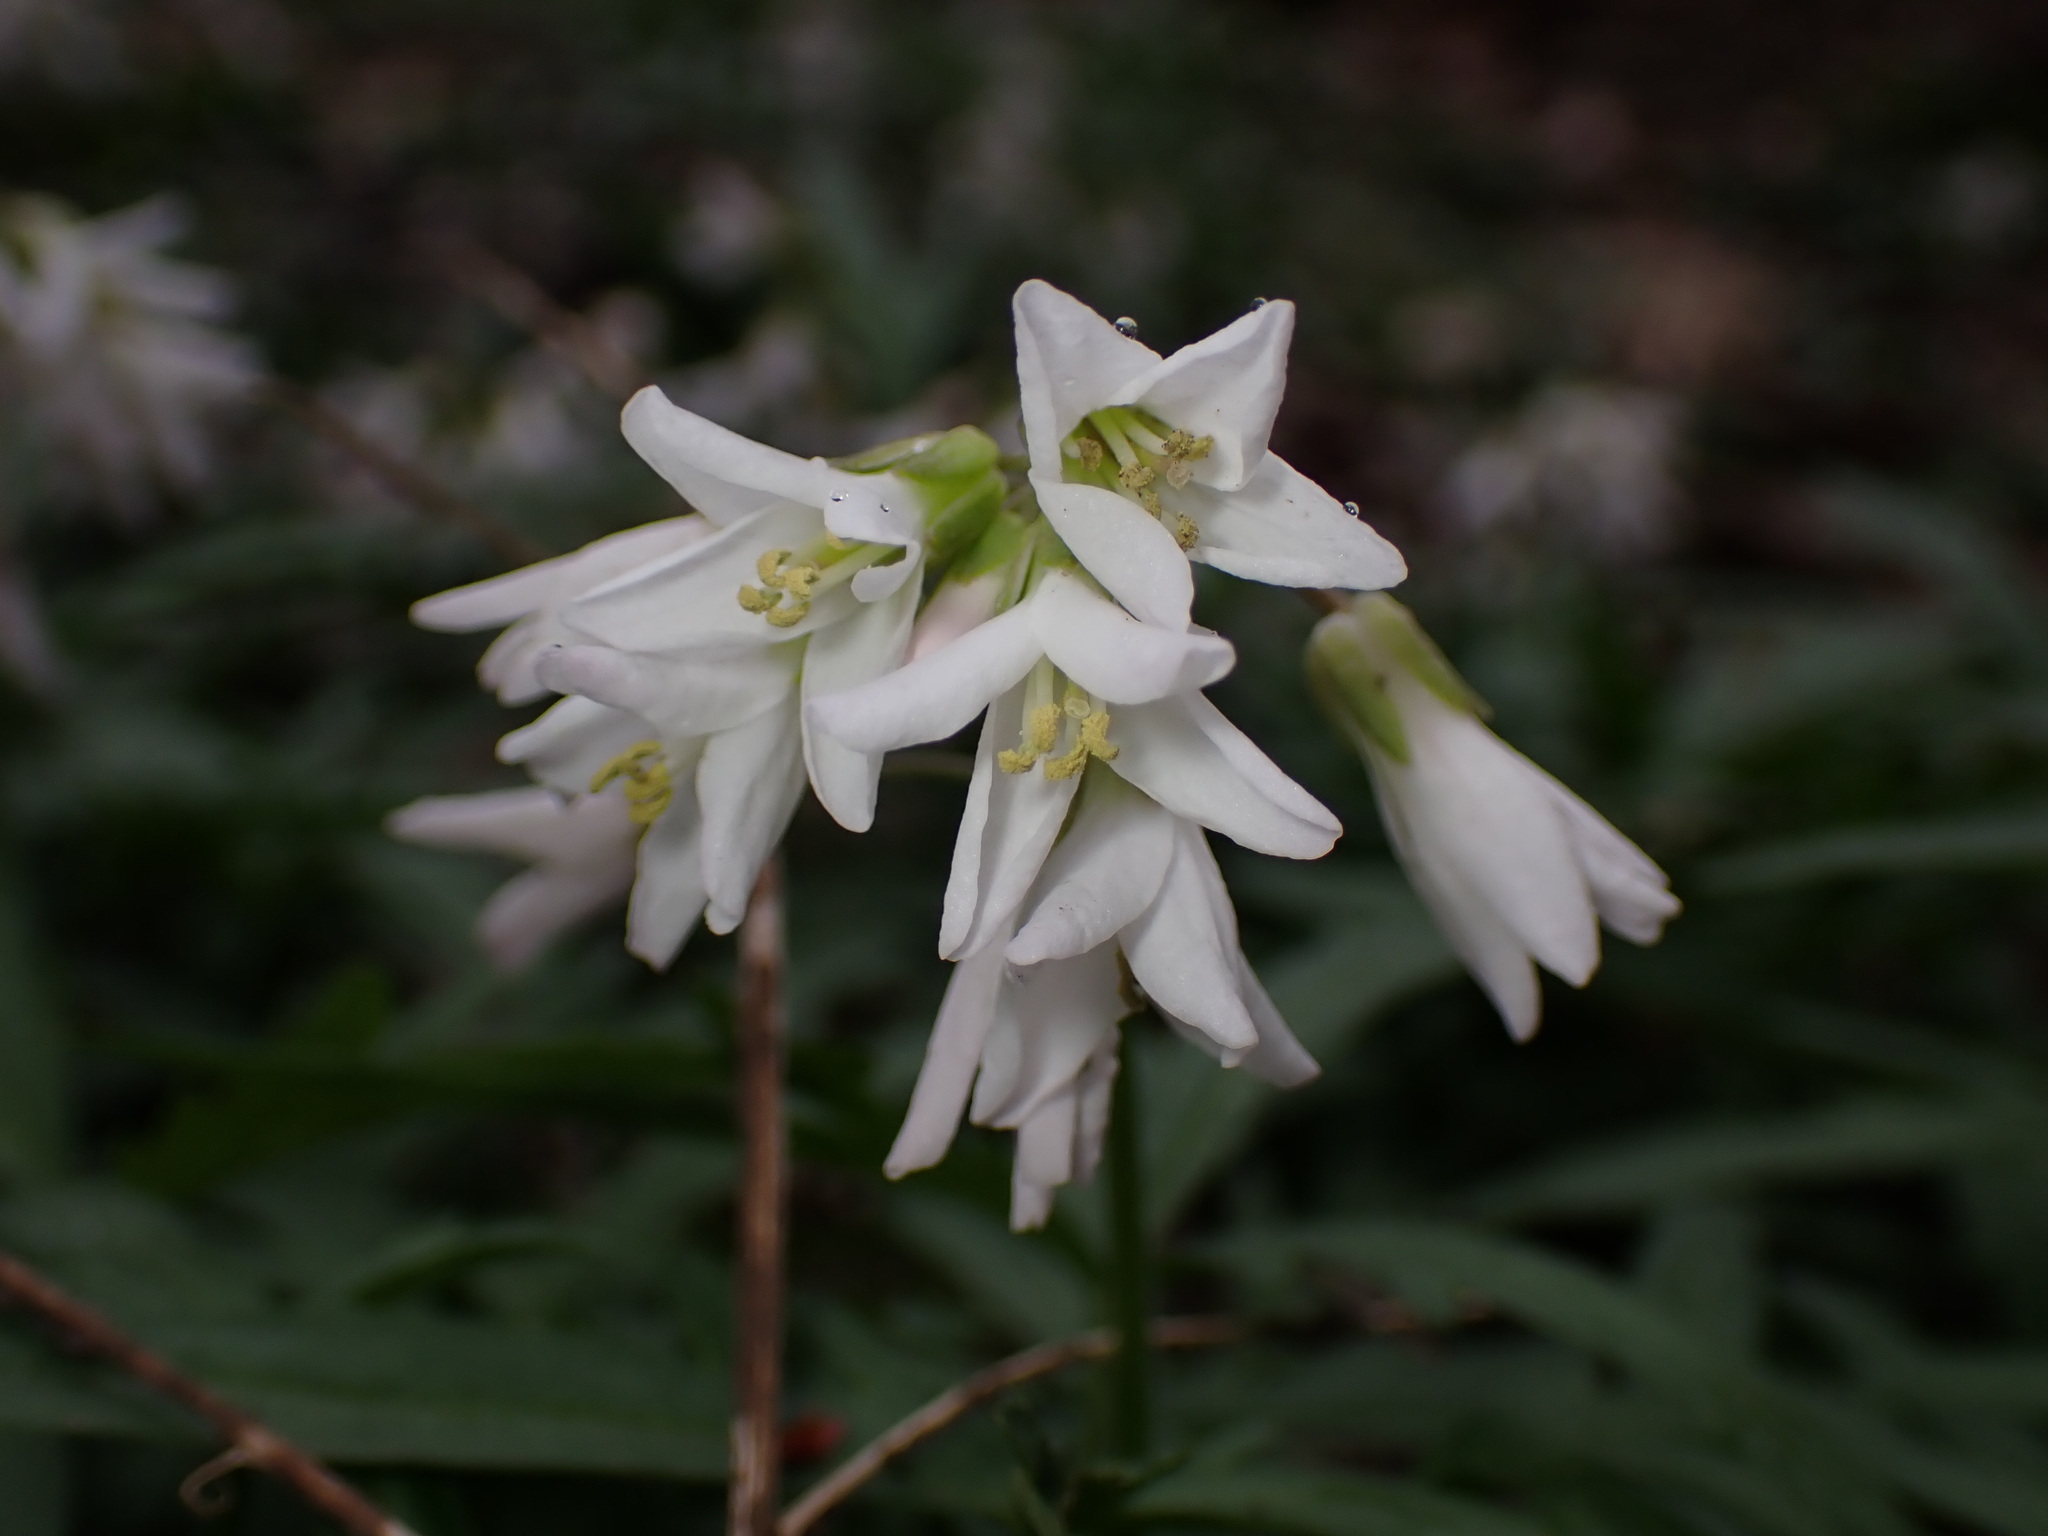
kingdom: Plantae
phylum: Tracheophyta
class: Magnoliopsida
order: Brassicales
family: Brassicaceae
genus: Cardamine
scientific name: Cardamine concatenata
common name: Cut-leaf toothcup
